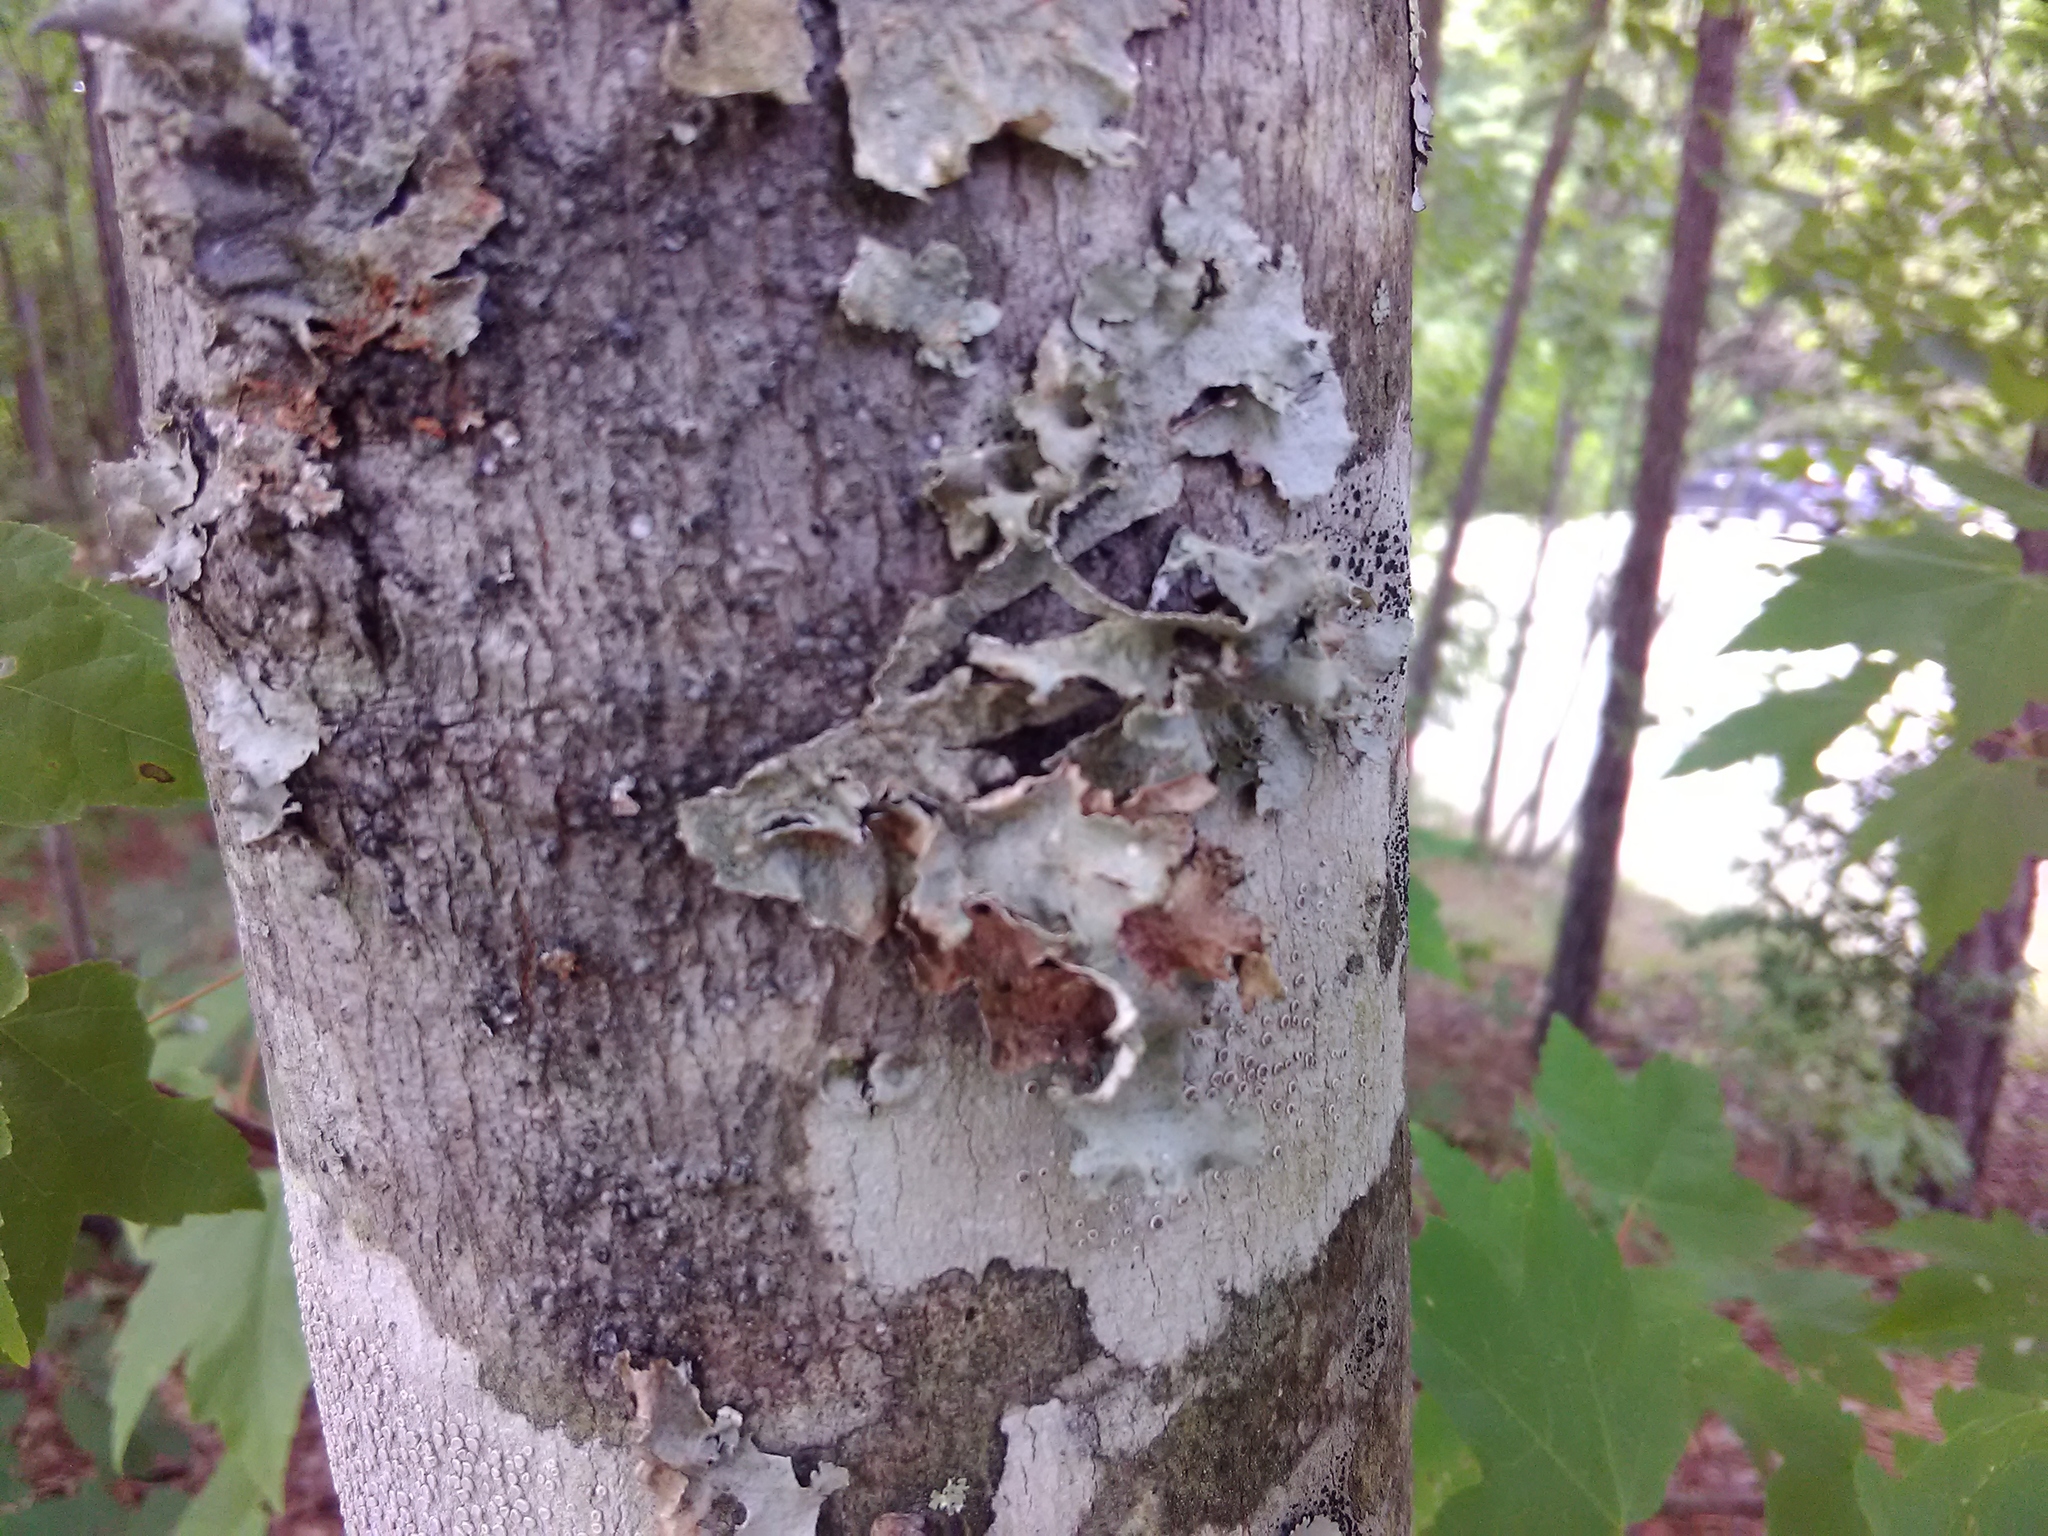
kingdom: Fungi
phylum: Ascomycota
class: Lecanoromycetes
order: Lecanorales
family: Parmeliaceae
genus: Parmotrema
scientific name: Parmotrema hypotropum
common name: Powdered ruffle lichen
